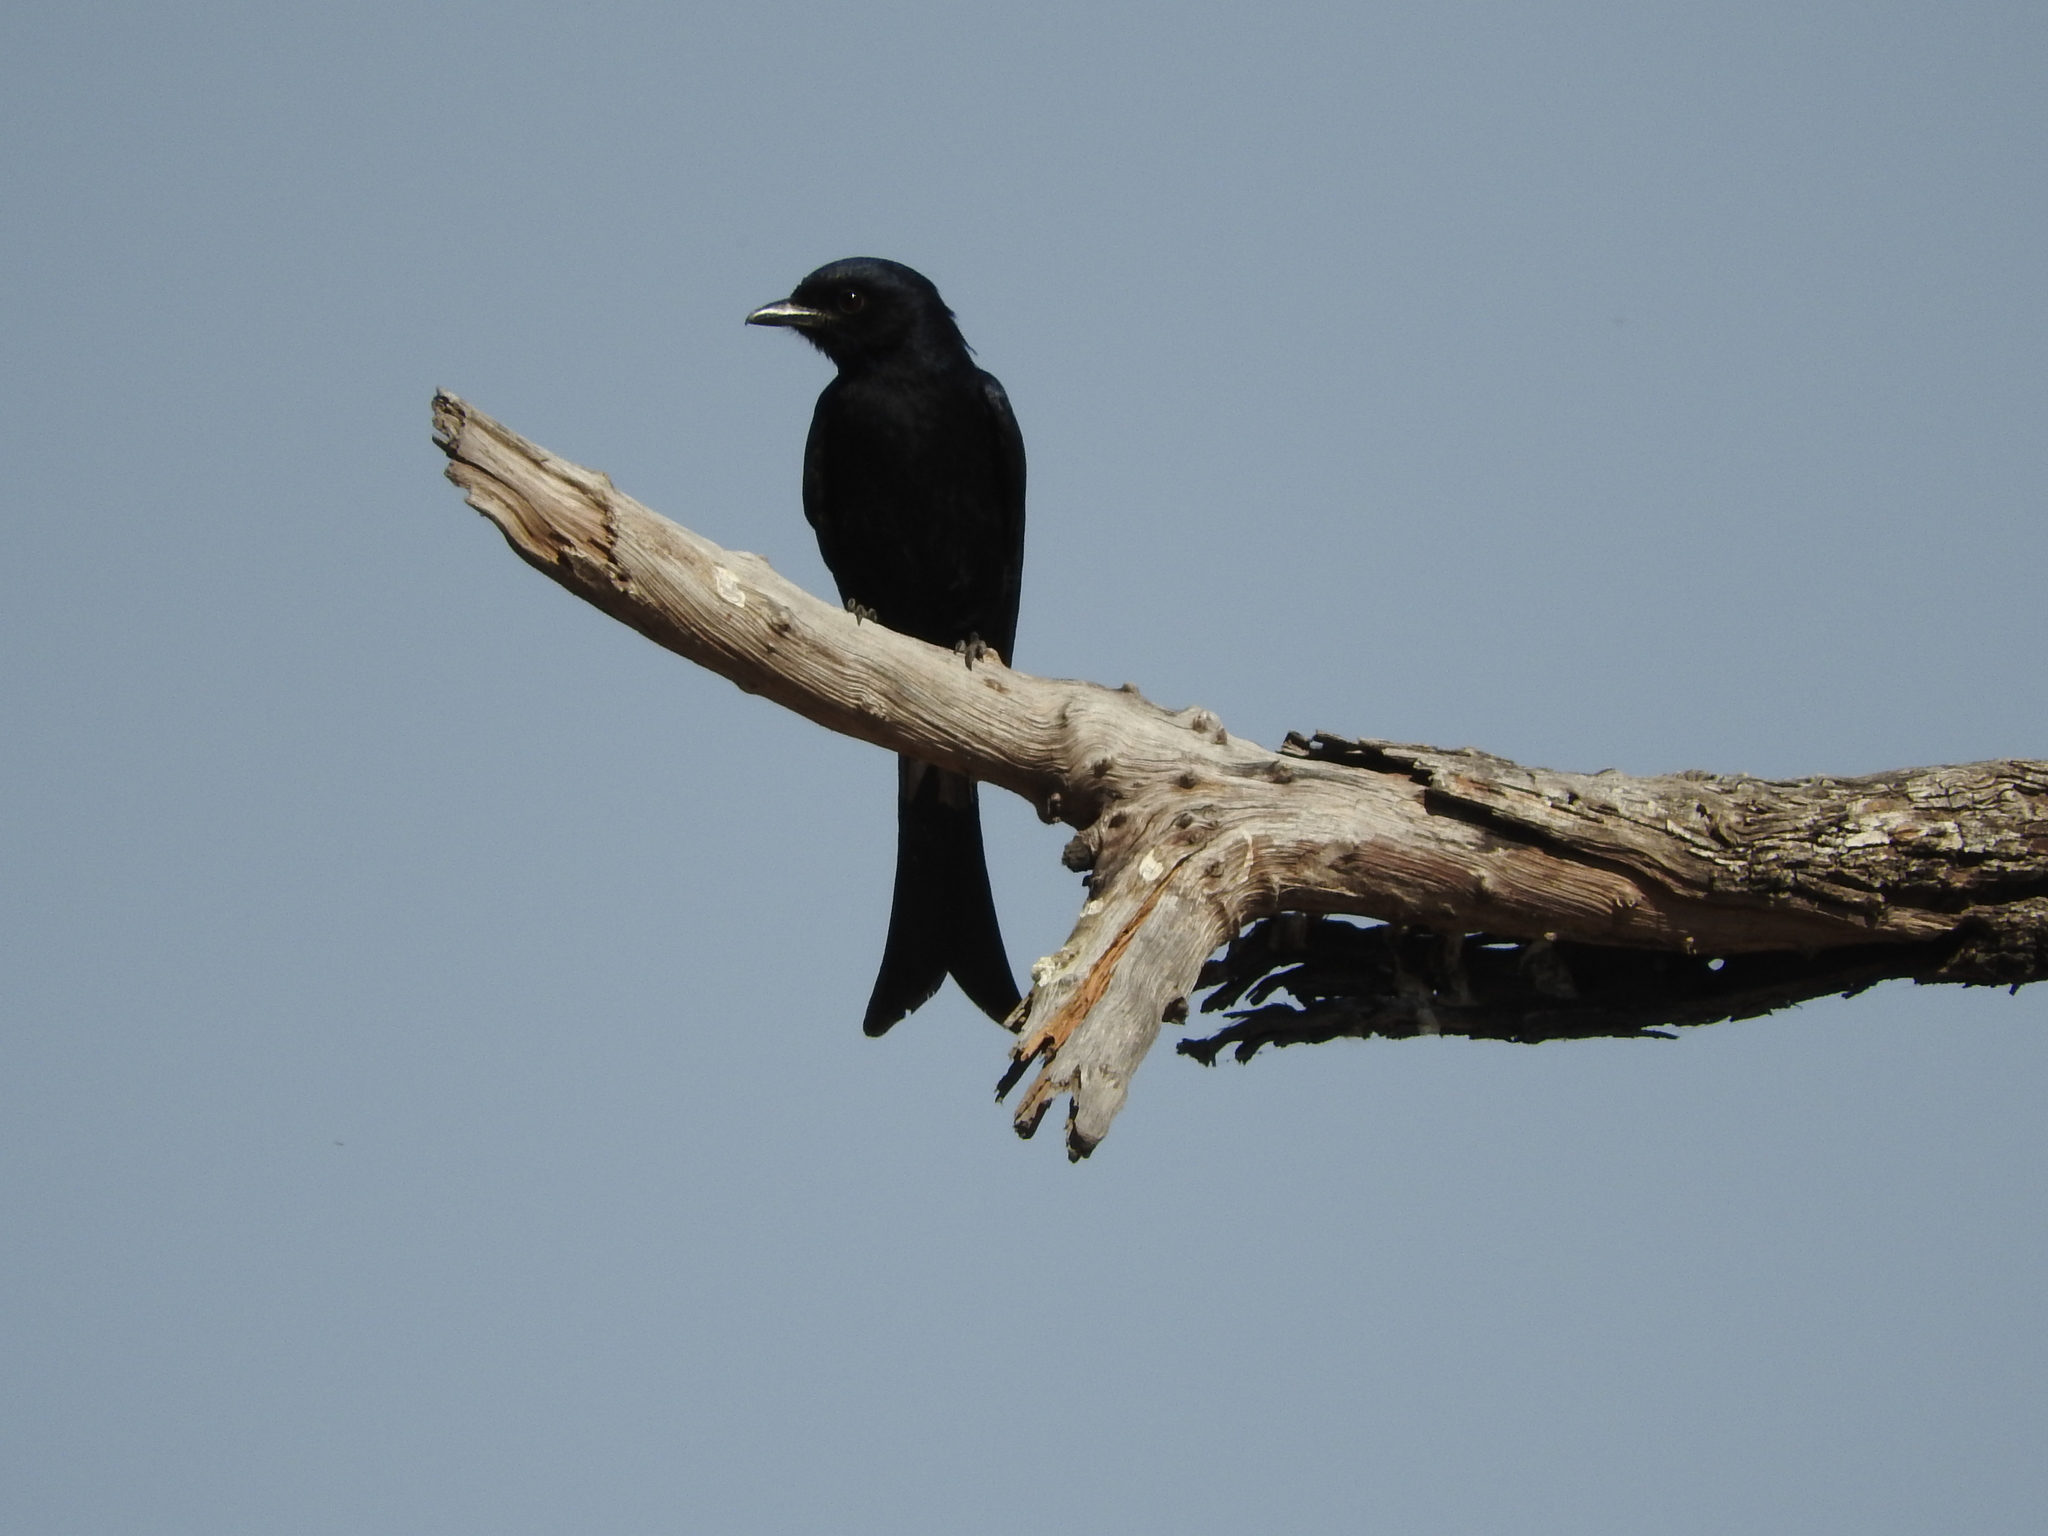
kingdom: Animalia
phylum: Chordata
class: Aves
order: Passeriformes
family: Dicruridae
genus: Dicrurus
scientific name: Dicrurus adsimilis
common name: Fork-tailed drongo
